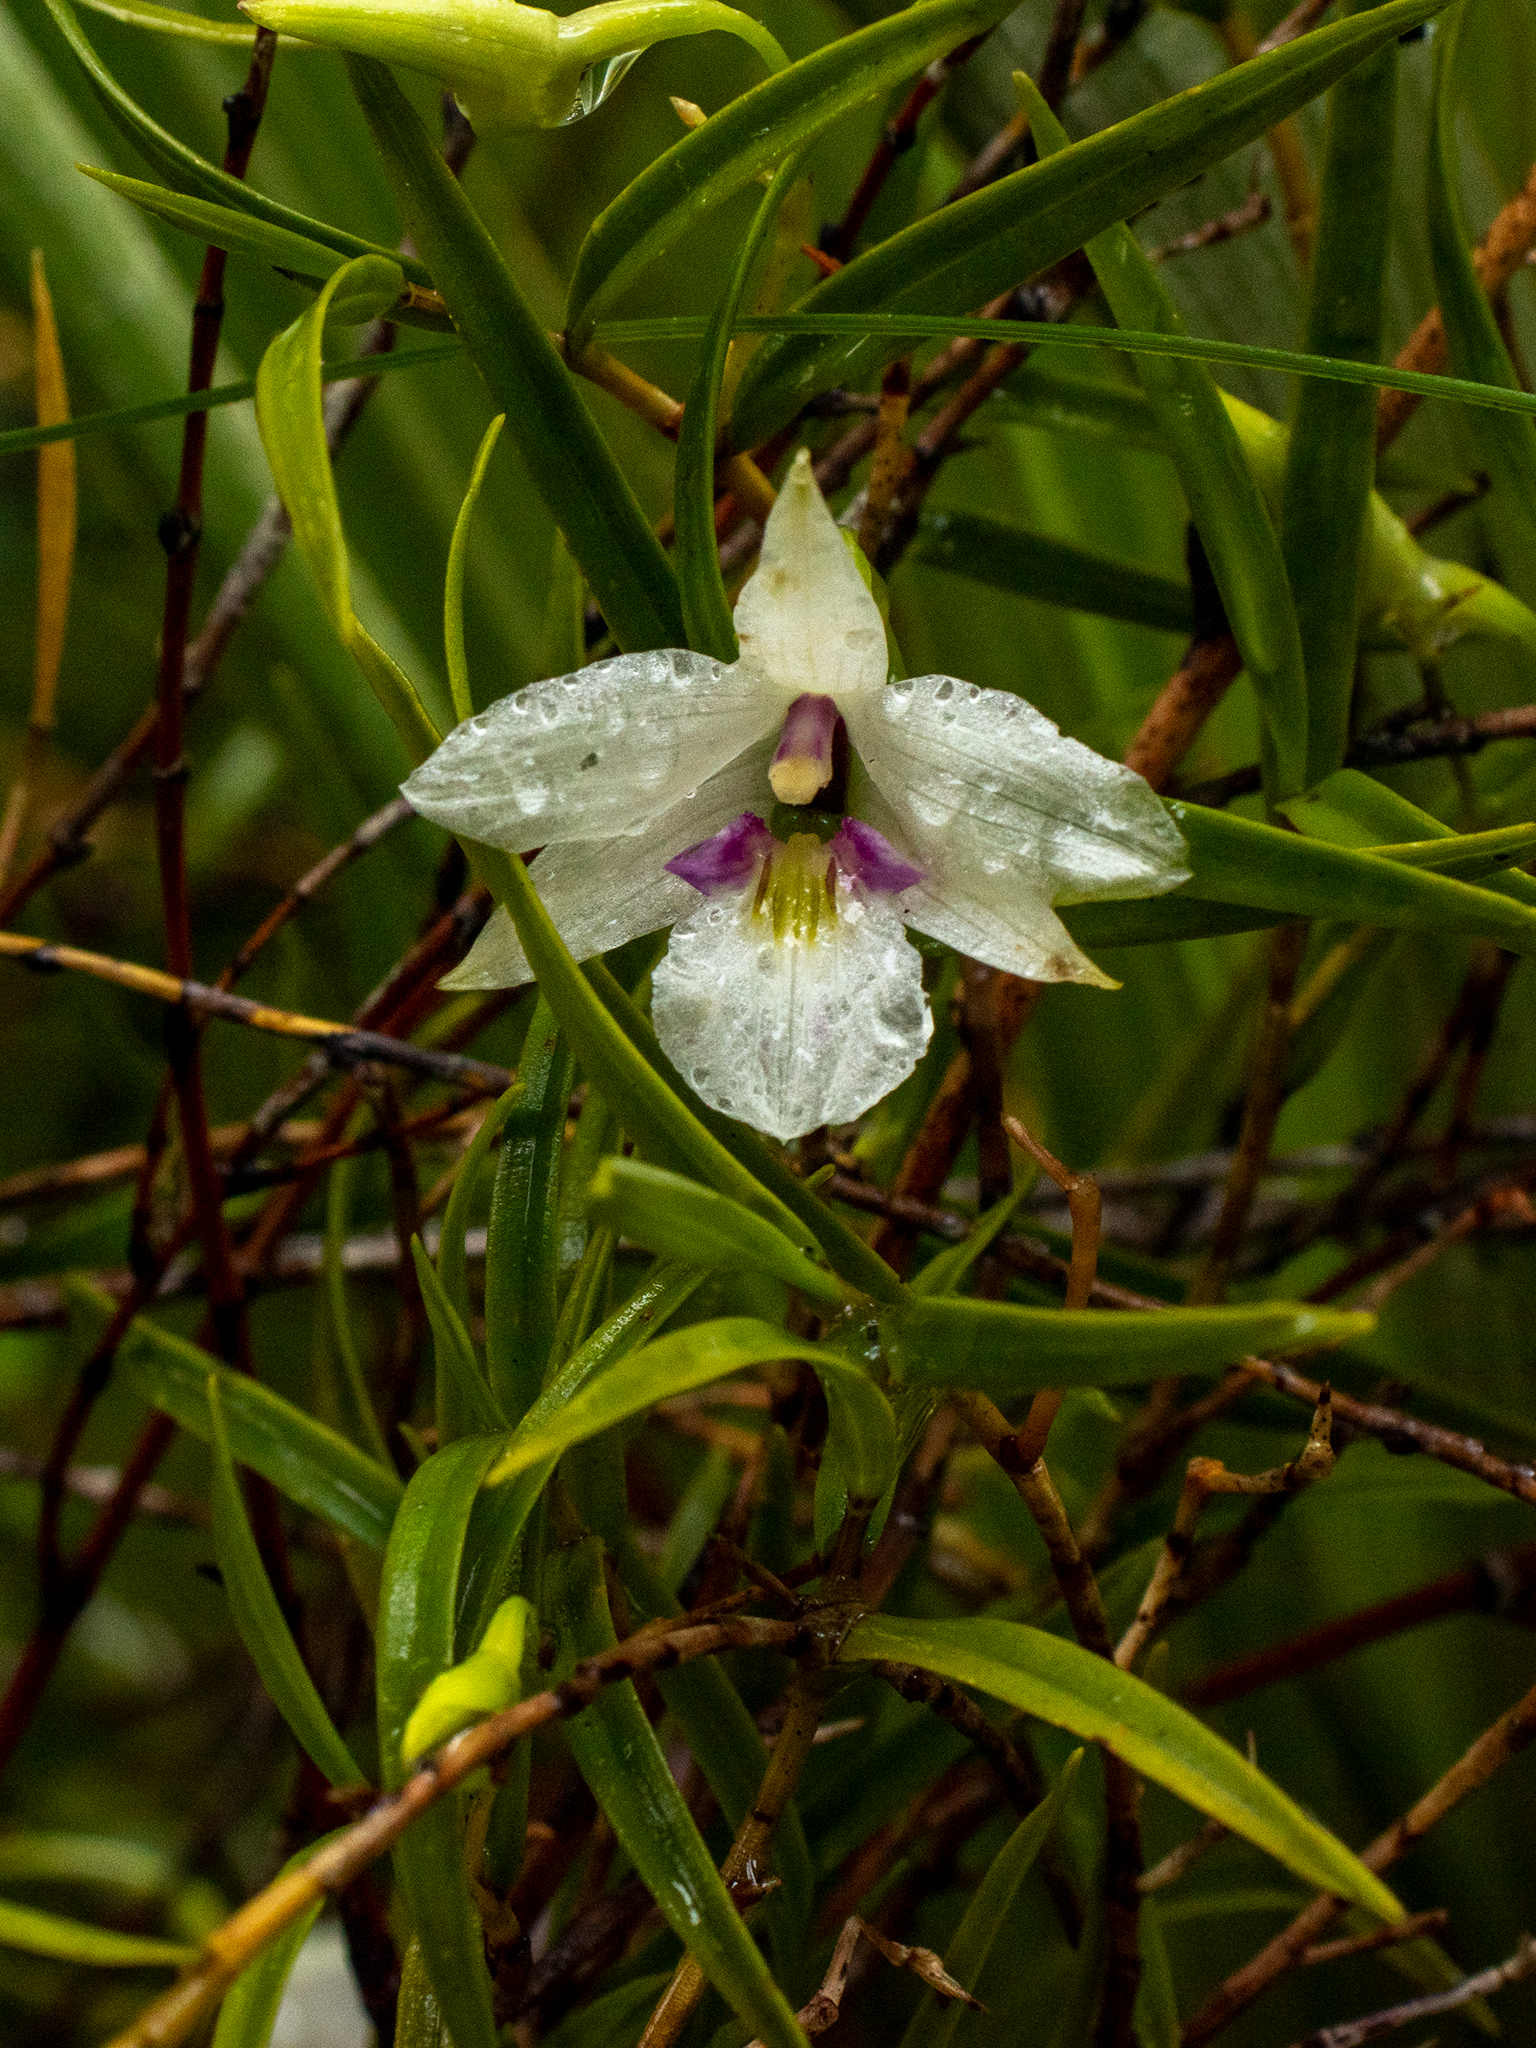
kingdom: Plantae
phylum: Tracheophyta
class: Liliopsida
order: Asparagales
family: Orchidaceae
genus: Dendrobium
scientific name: Dendrobium cunninghamii
